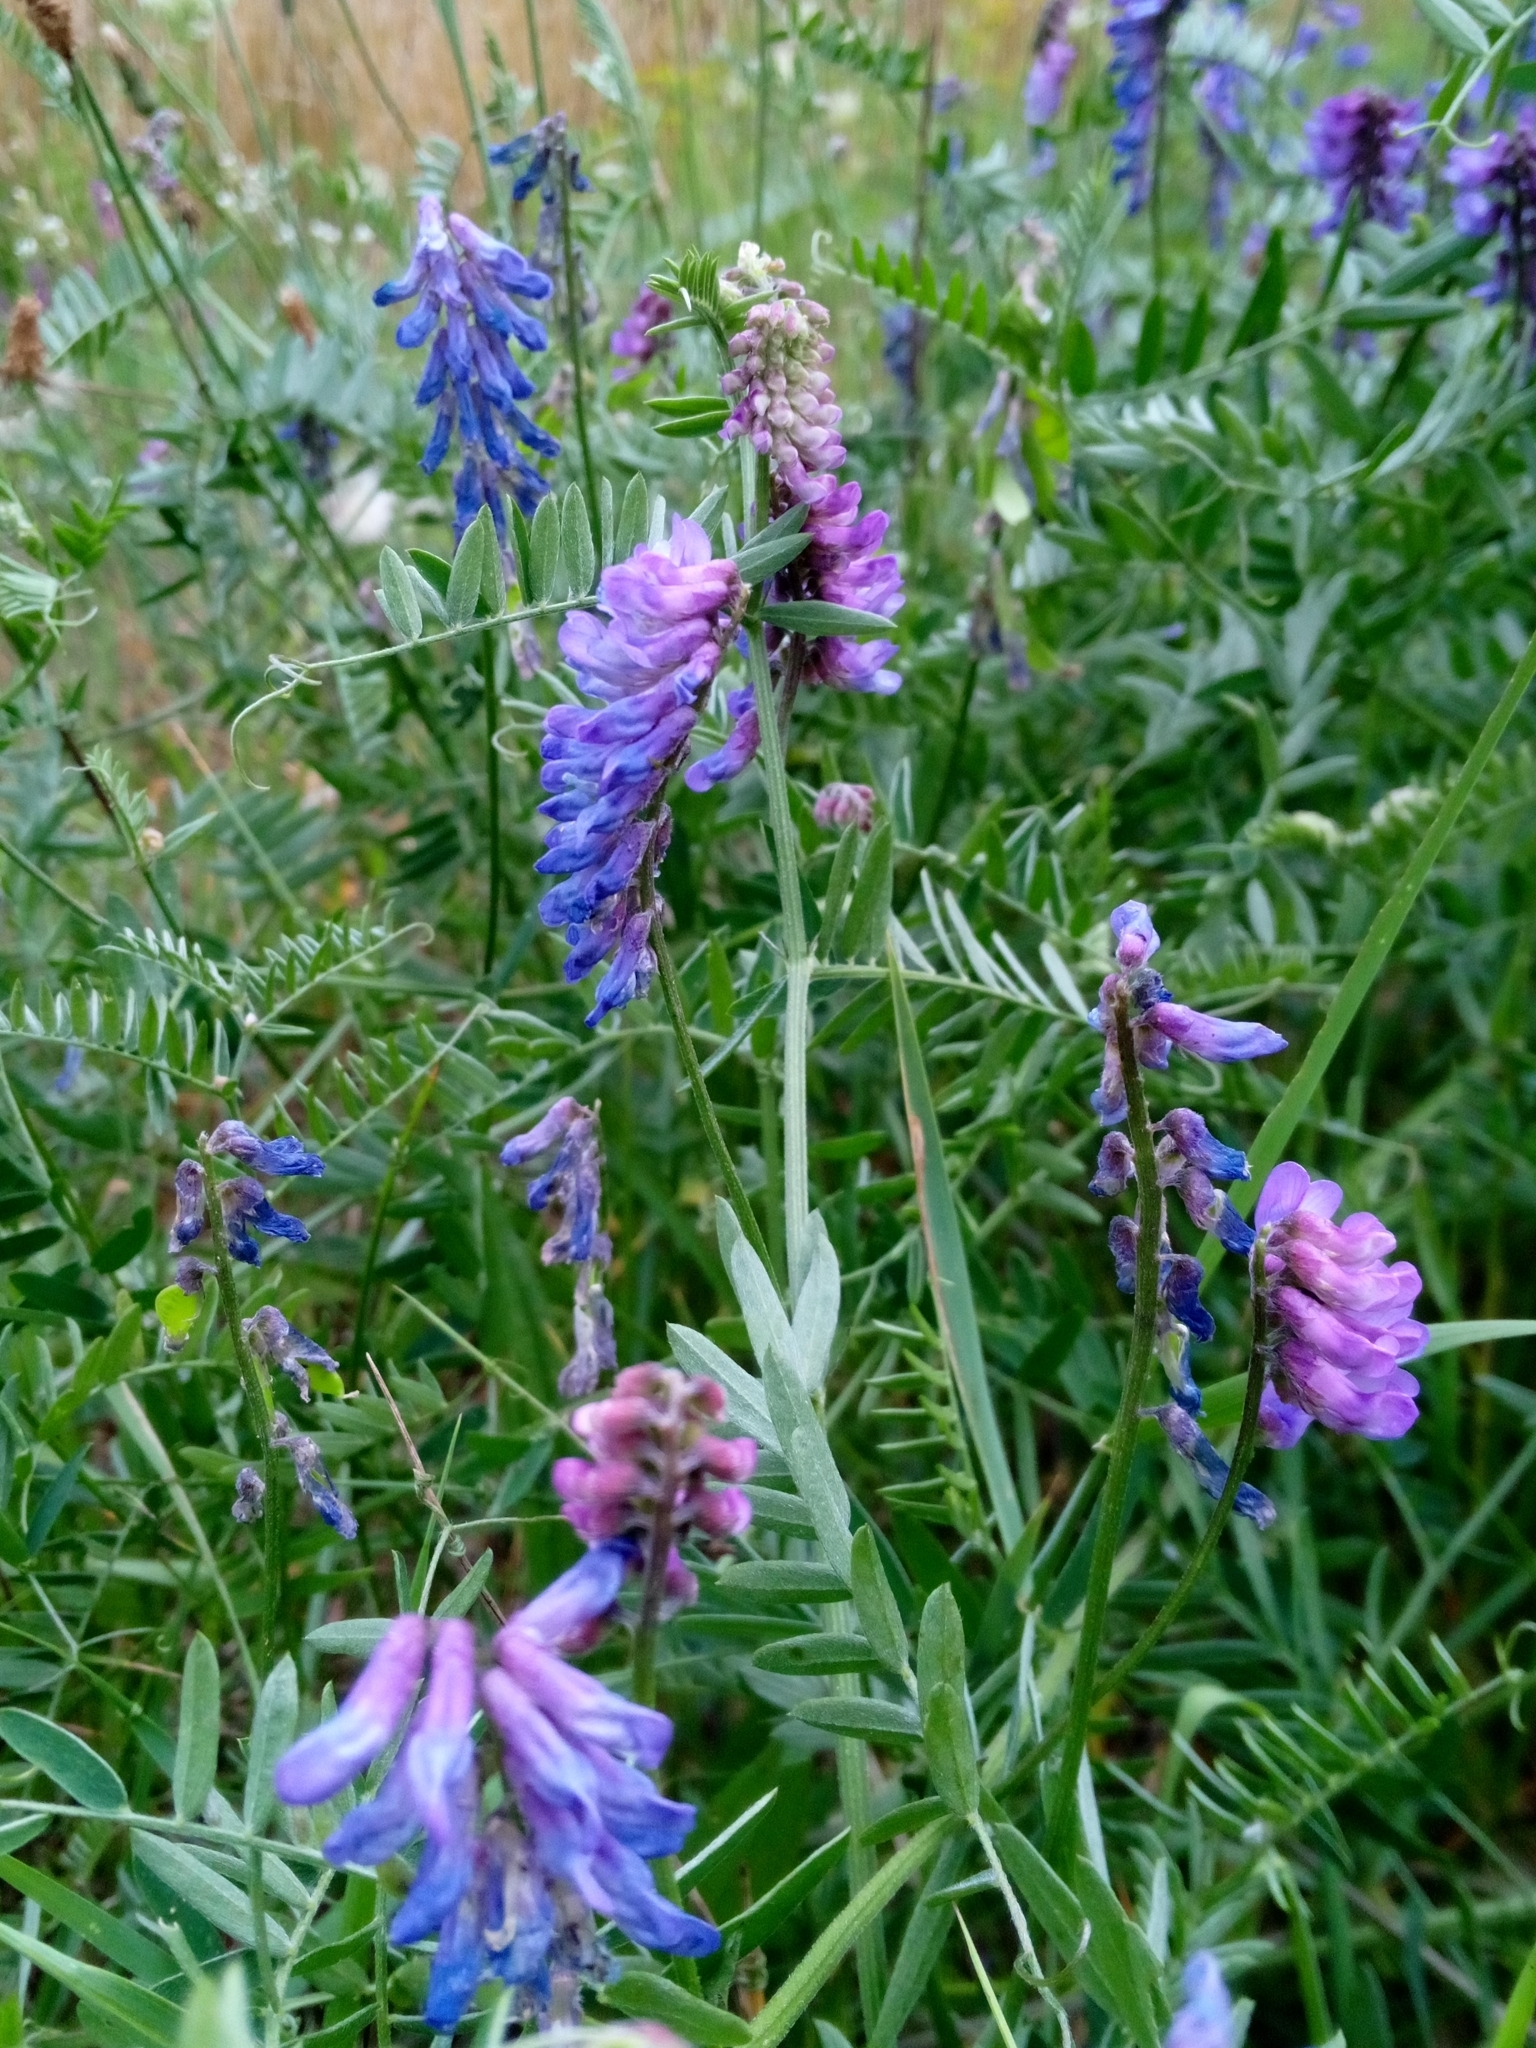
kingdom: Plantae
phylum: Tracheophyta
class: Magnoliopsida
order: Fabales
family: Fabaceae
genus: Vicia
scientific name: Vicia cracca
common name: Bird vetch
